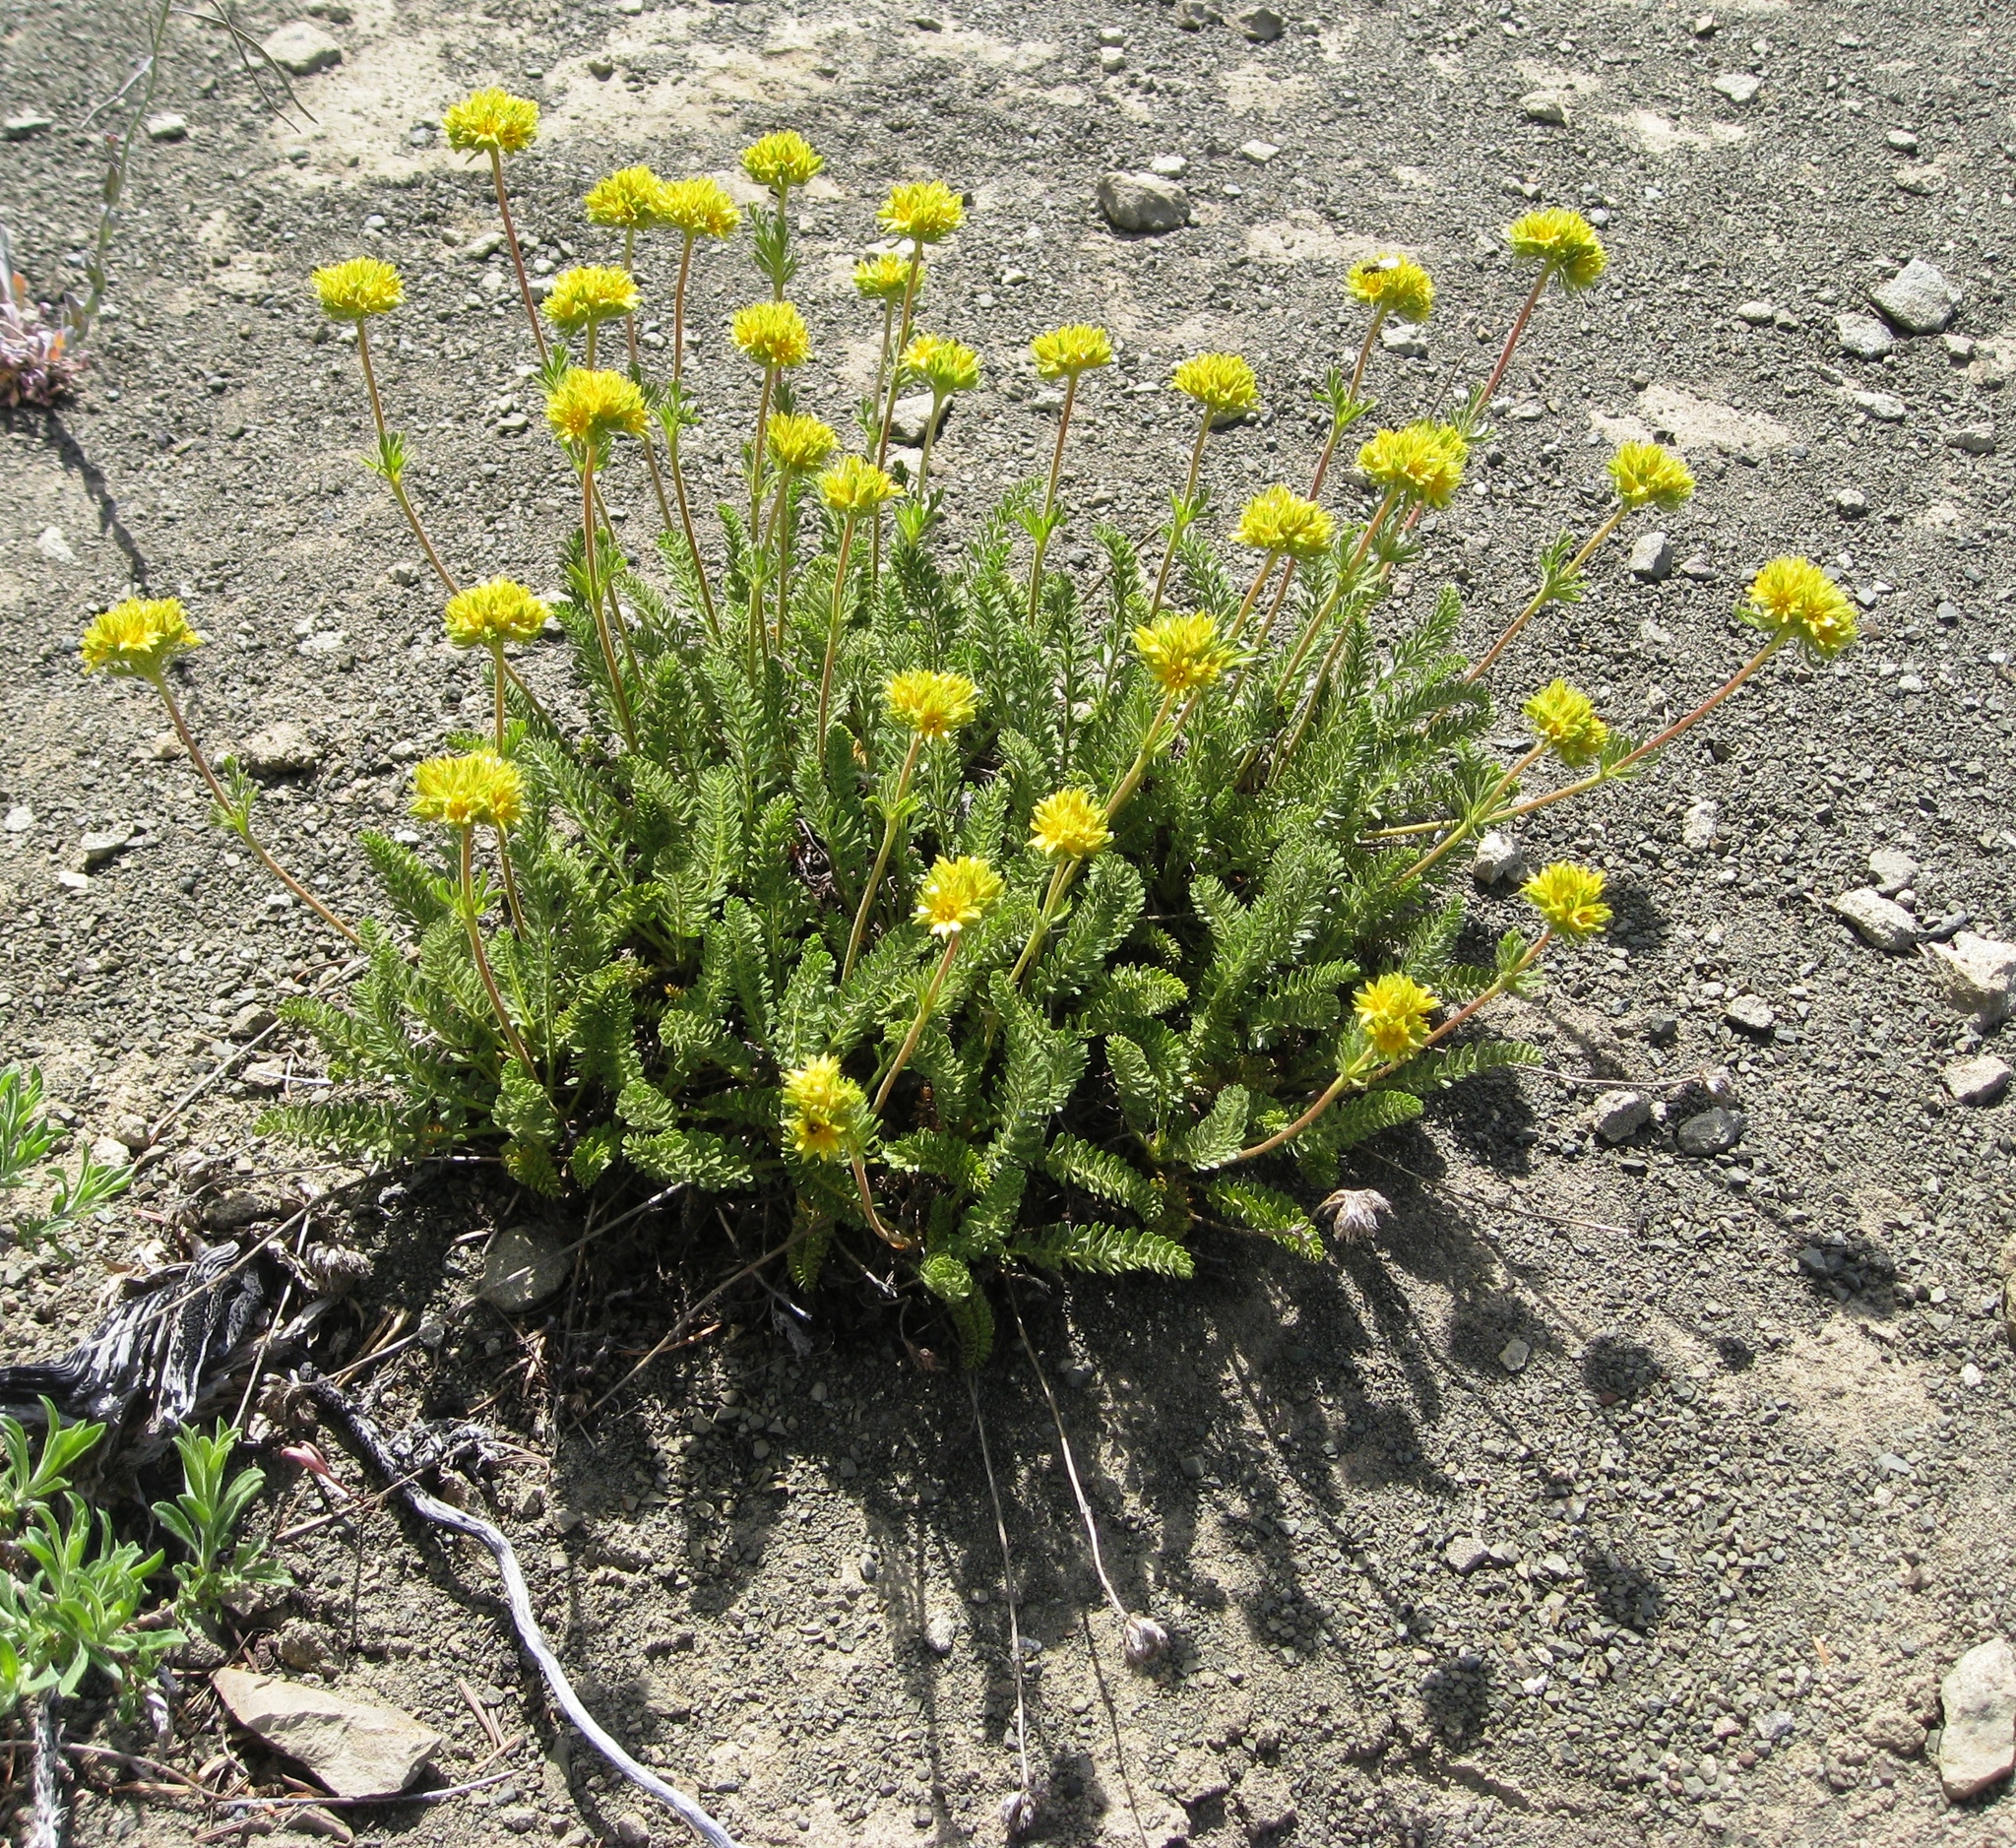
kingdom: Plantae
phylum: Tracheophyta
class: Magnoliopsida
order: Rosales
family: Rosaceae
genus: Potentilla
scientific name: Potentilla tweedyi
